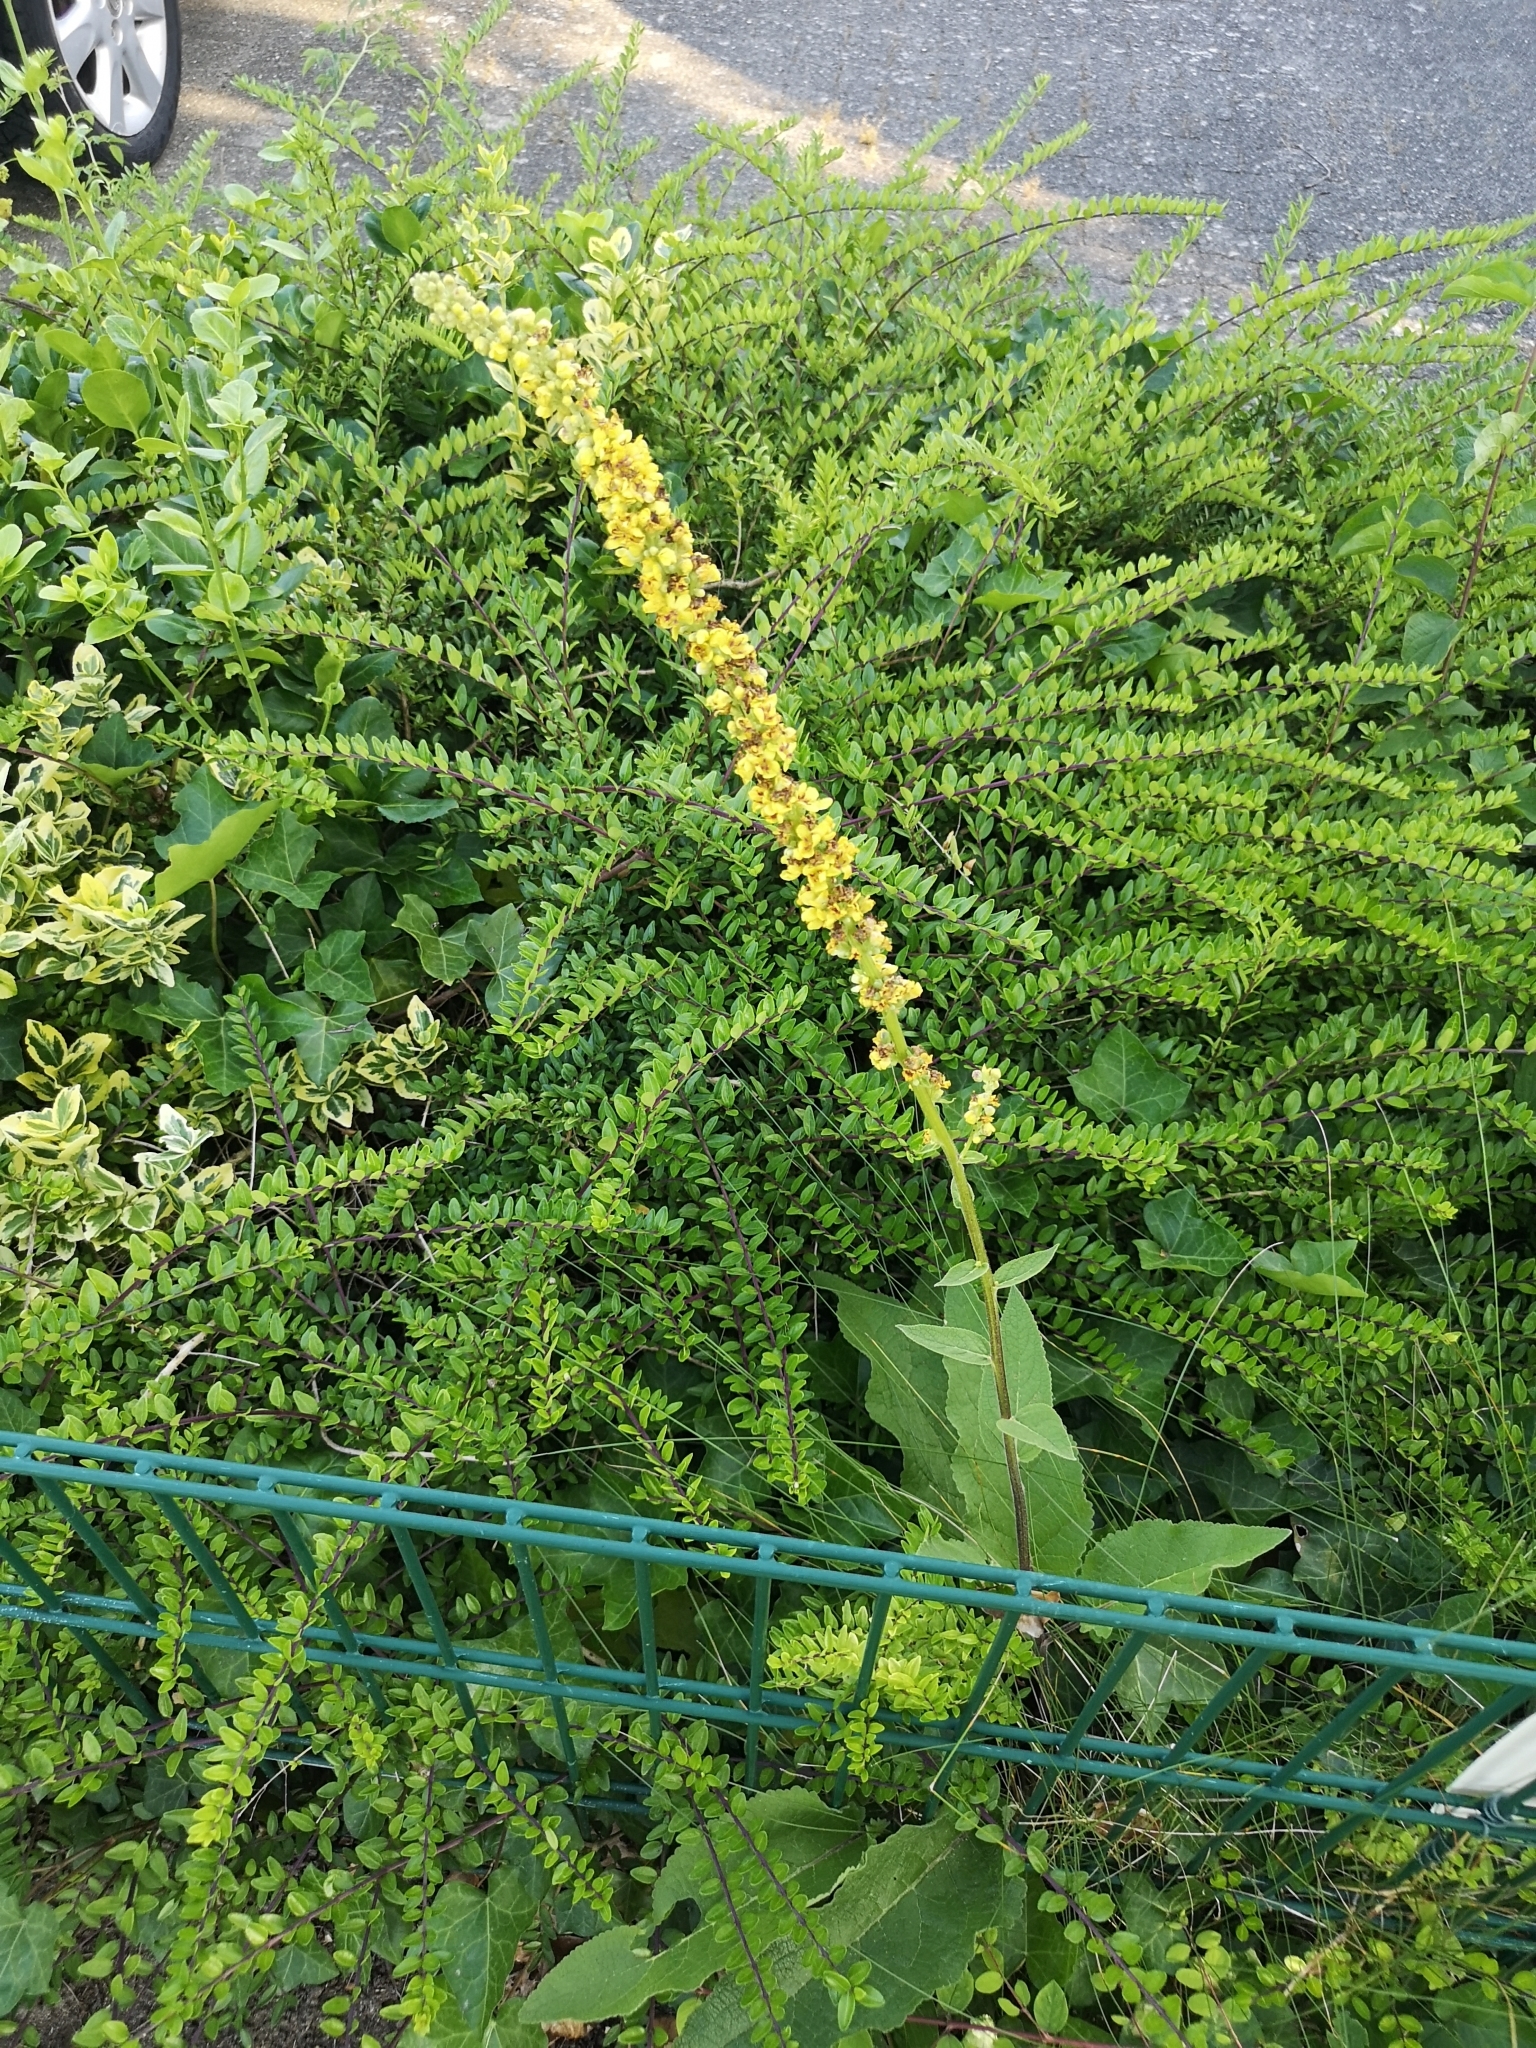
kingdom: Plantae
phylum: Tracheophyta
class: Magnoliopsida
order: Lamiales
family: Scrophulariaceae
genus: Verbascum
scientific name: Verbascum nigrum
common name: Dark mullein
